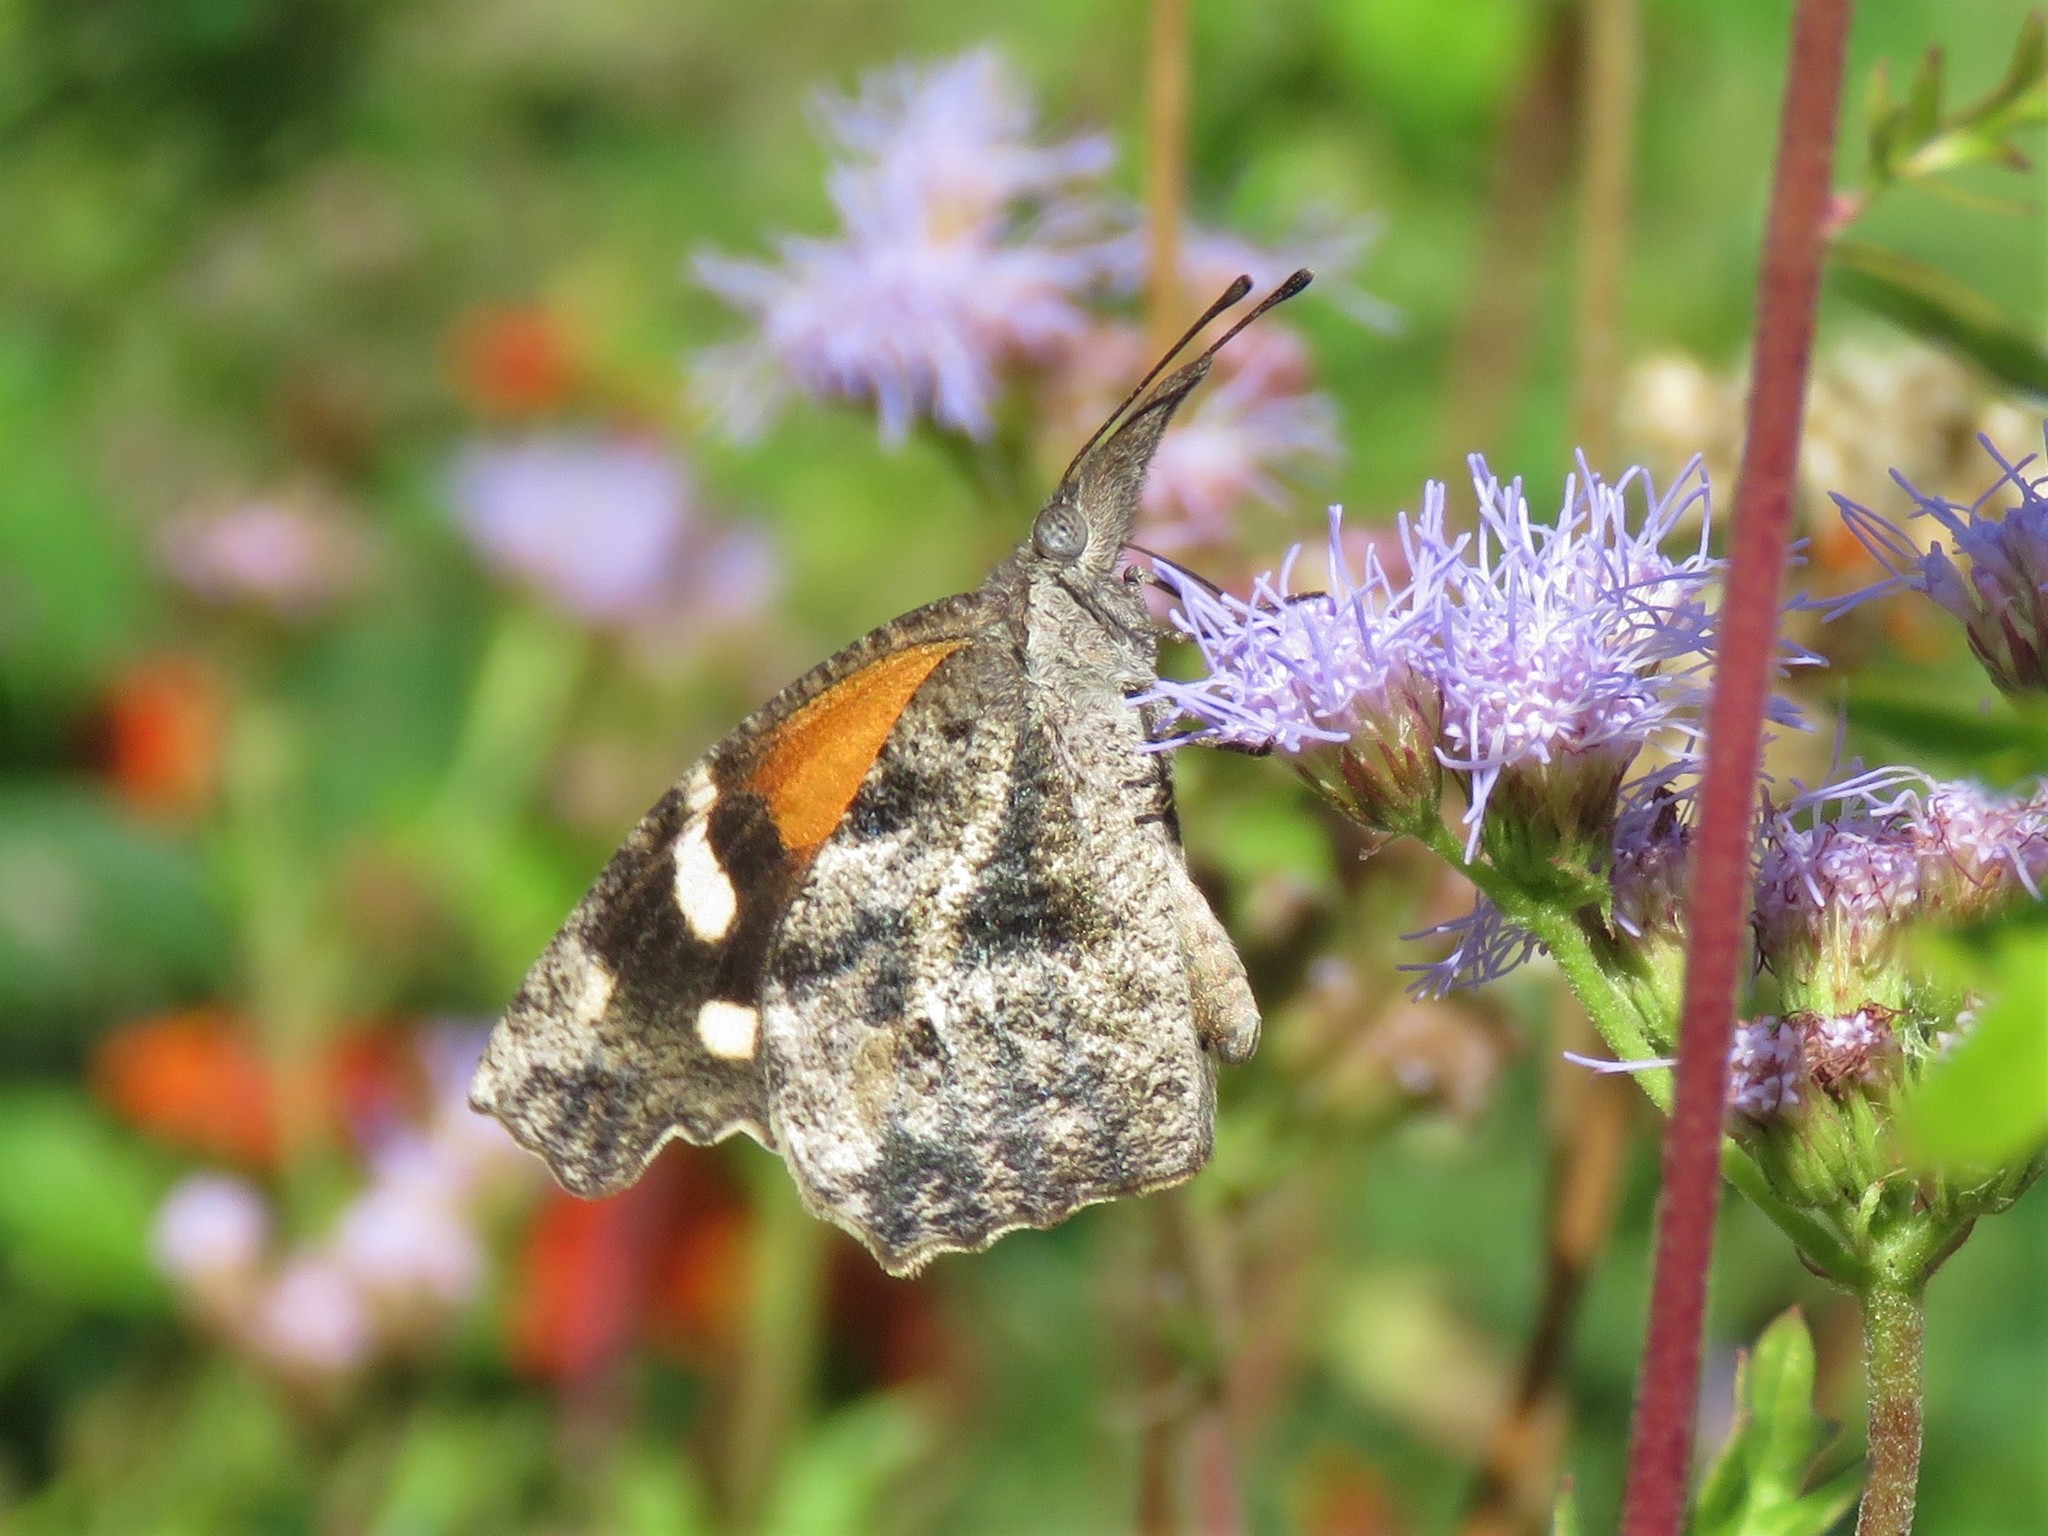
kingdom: Animalia
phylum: Arthropoda
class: Insecta
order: Lepidoptera
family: Nymphalidae
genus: Libytheana
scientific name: Libytheana carinenta
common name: American snout
